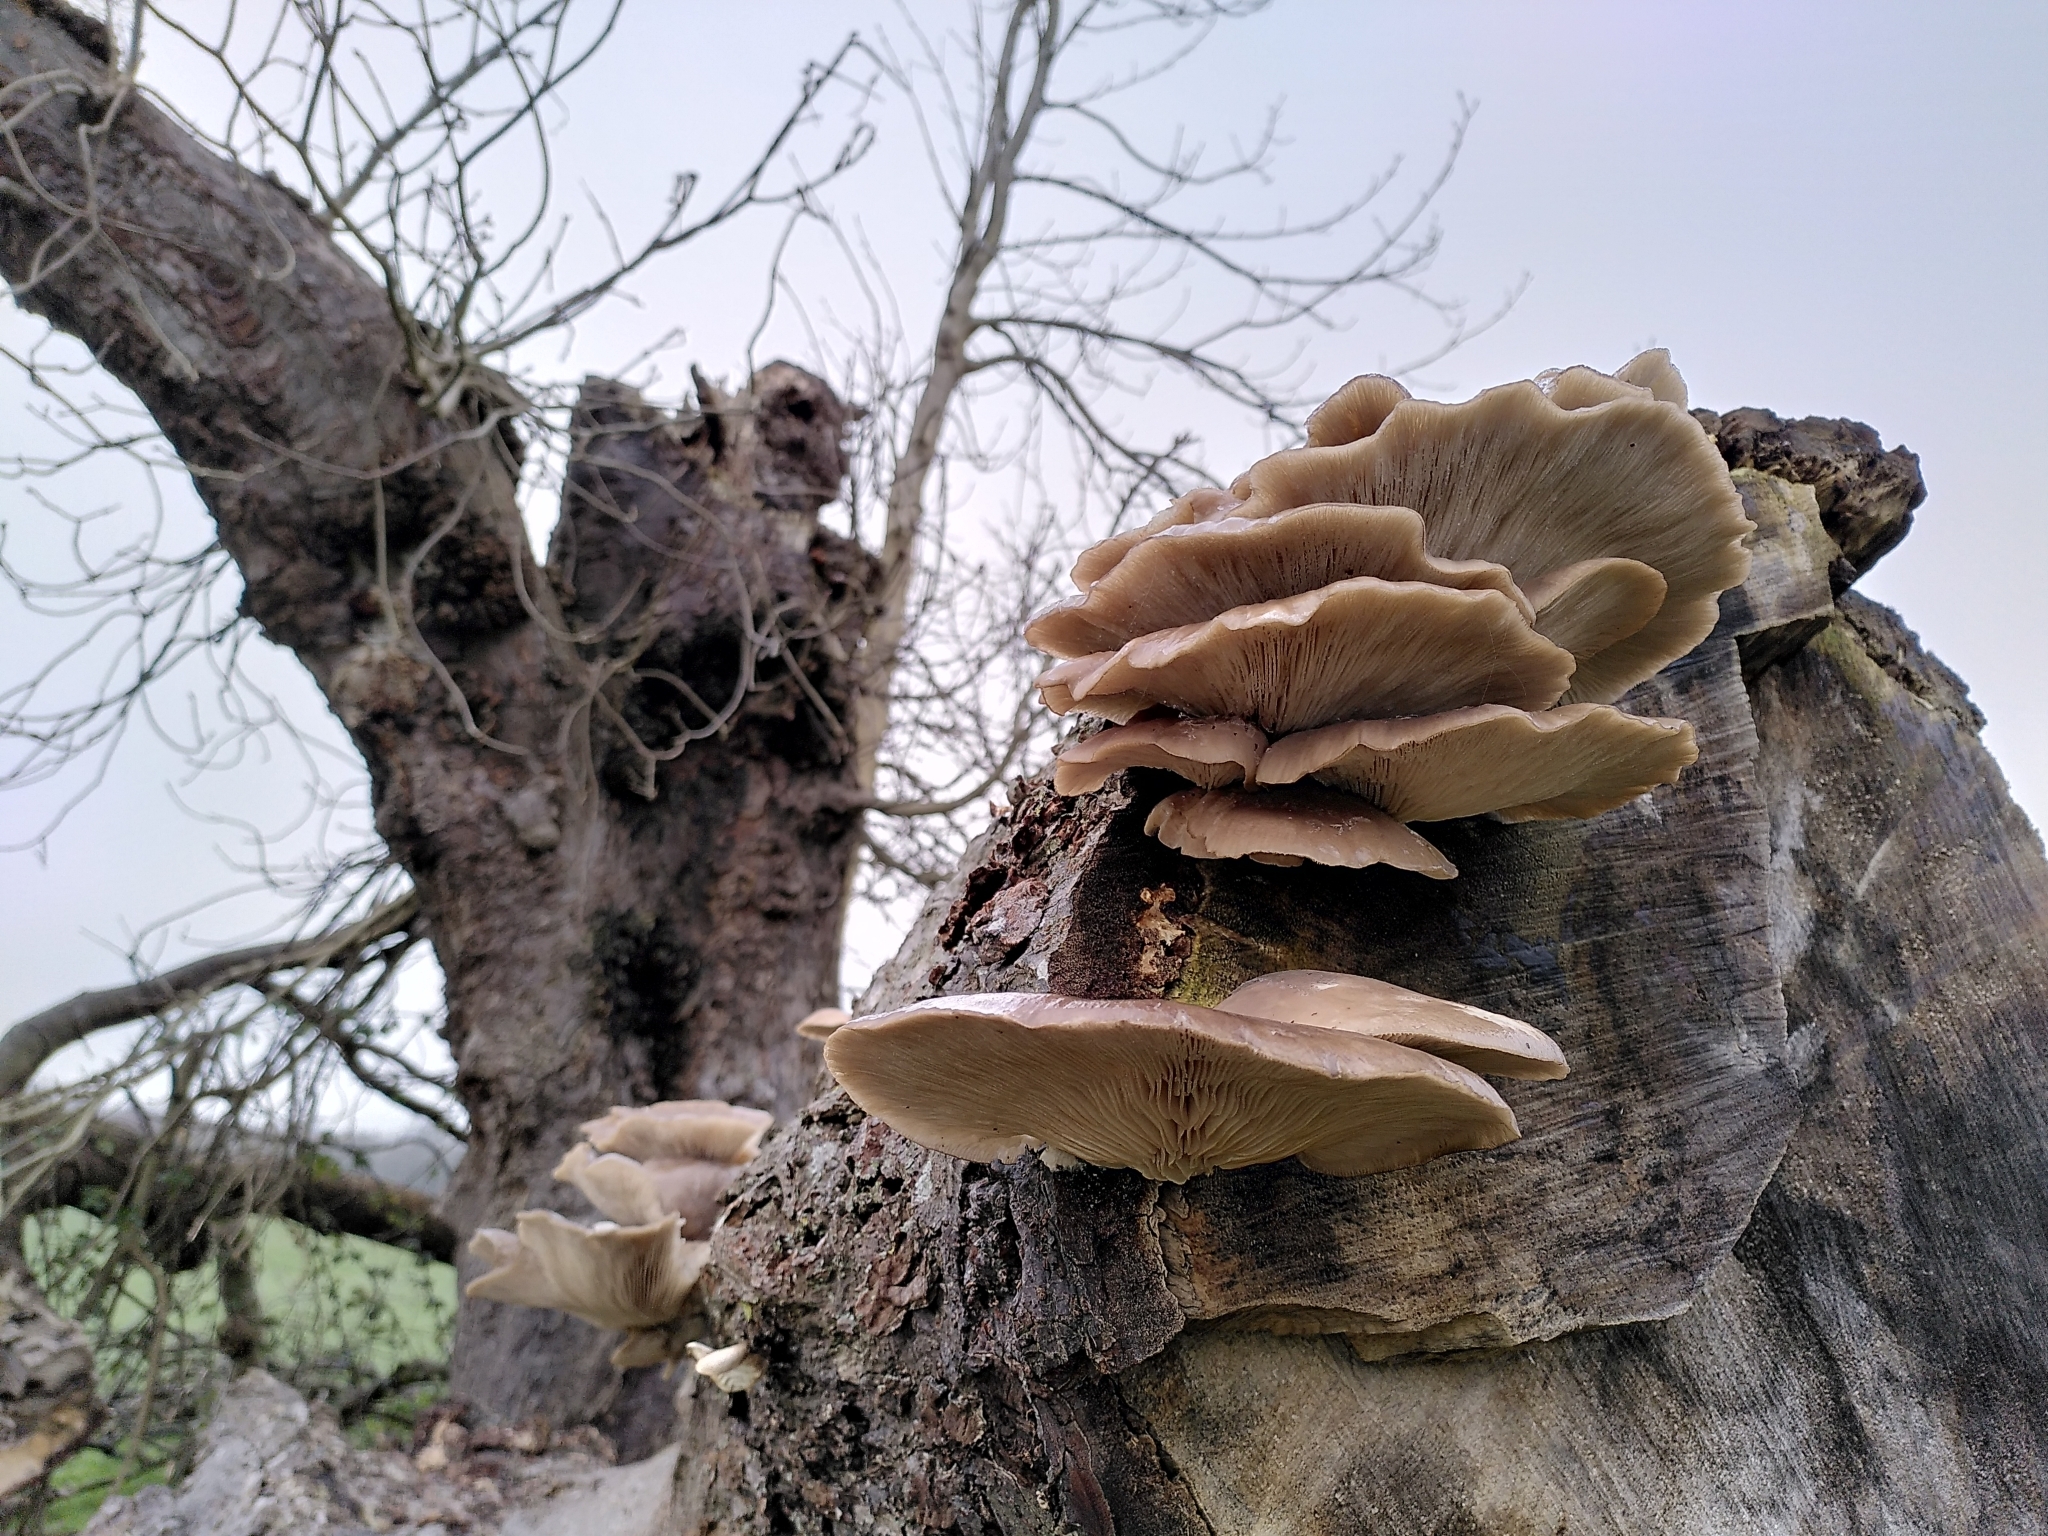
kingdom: Fungi
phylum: Basidiomycota
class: Agaricomycetes
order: Agaricales
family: Pleurotaceae
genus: Pleurotus
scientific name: Pleurotus ostreatus
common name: Oyster mushroom
